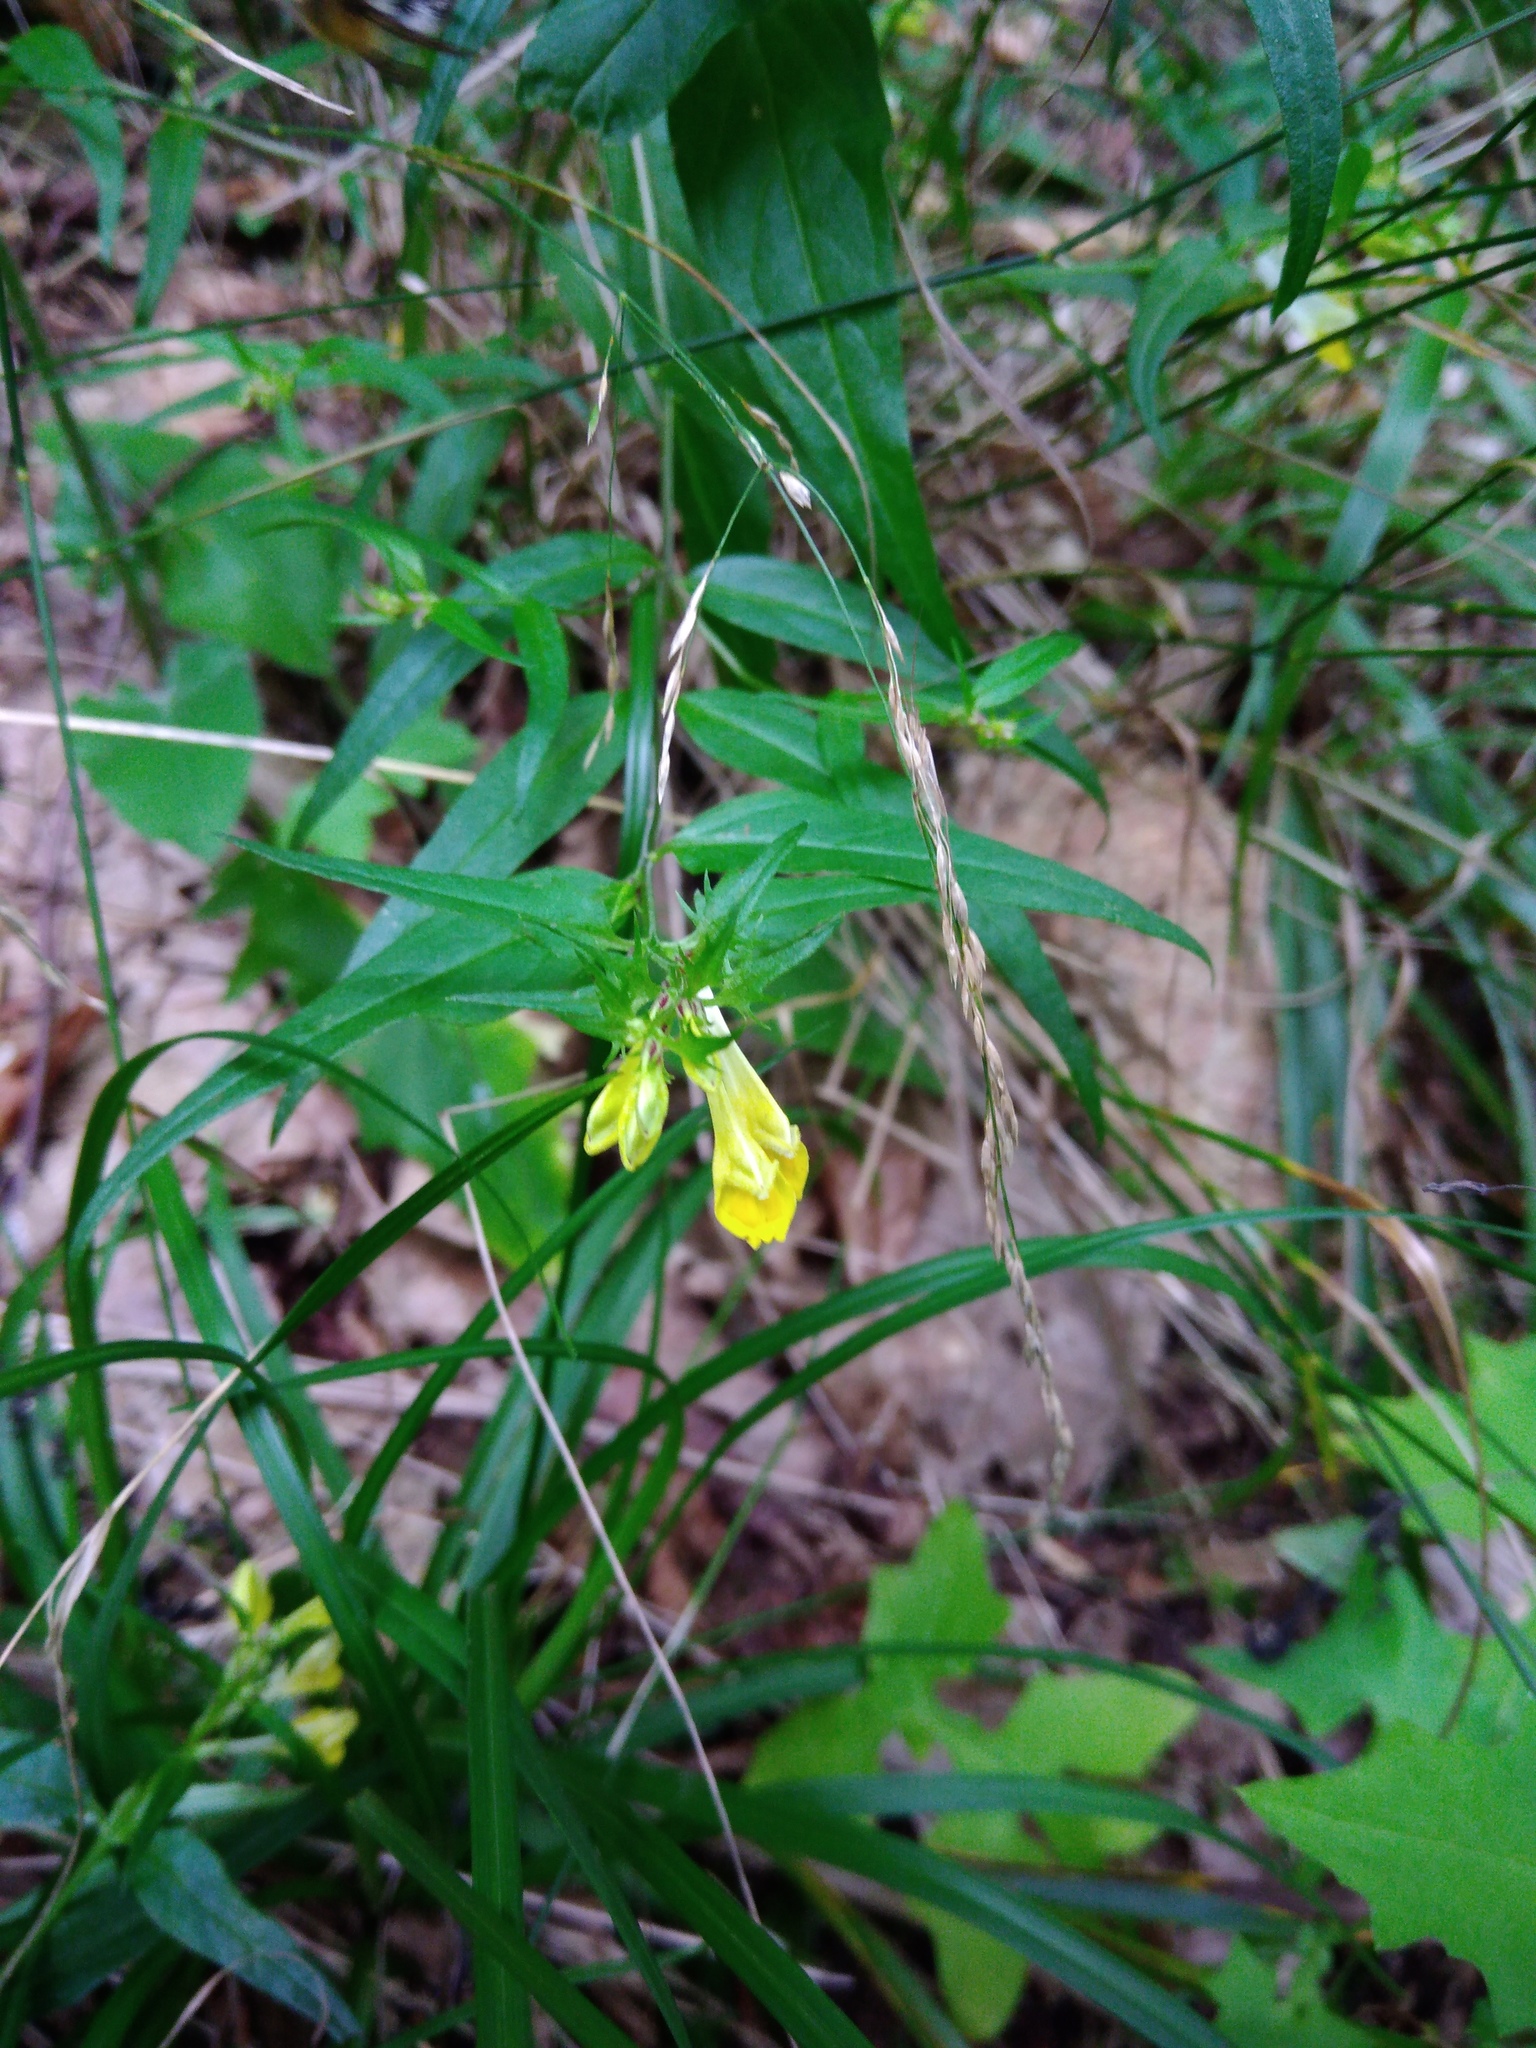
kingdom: Plantae
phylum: Tracheophyta
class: Magnoliopsida
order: Lamiales
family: Orobanchaceae
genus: Melampyrum
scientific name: Melampyrum pratense
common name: Common cow-wheat
